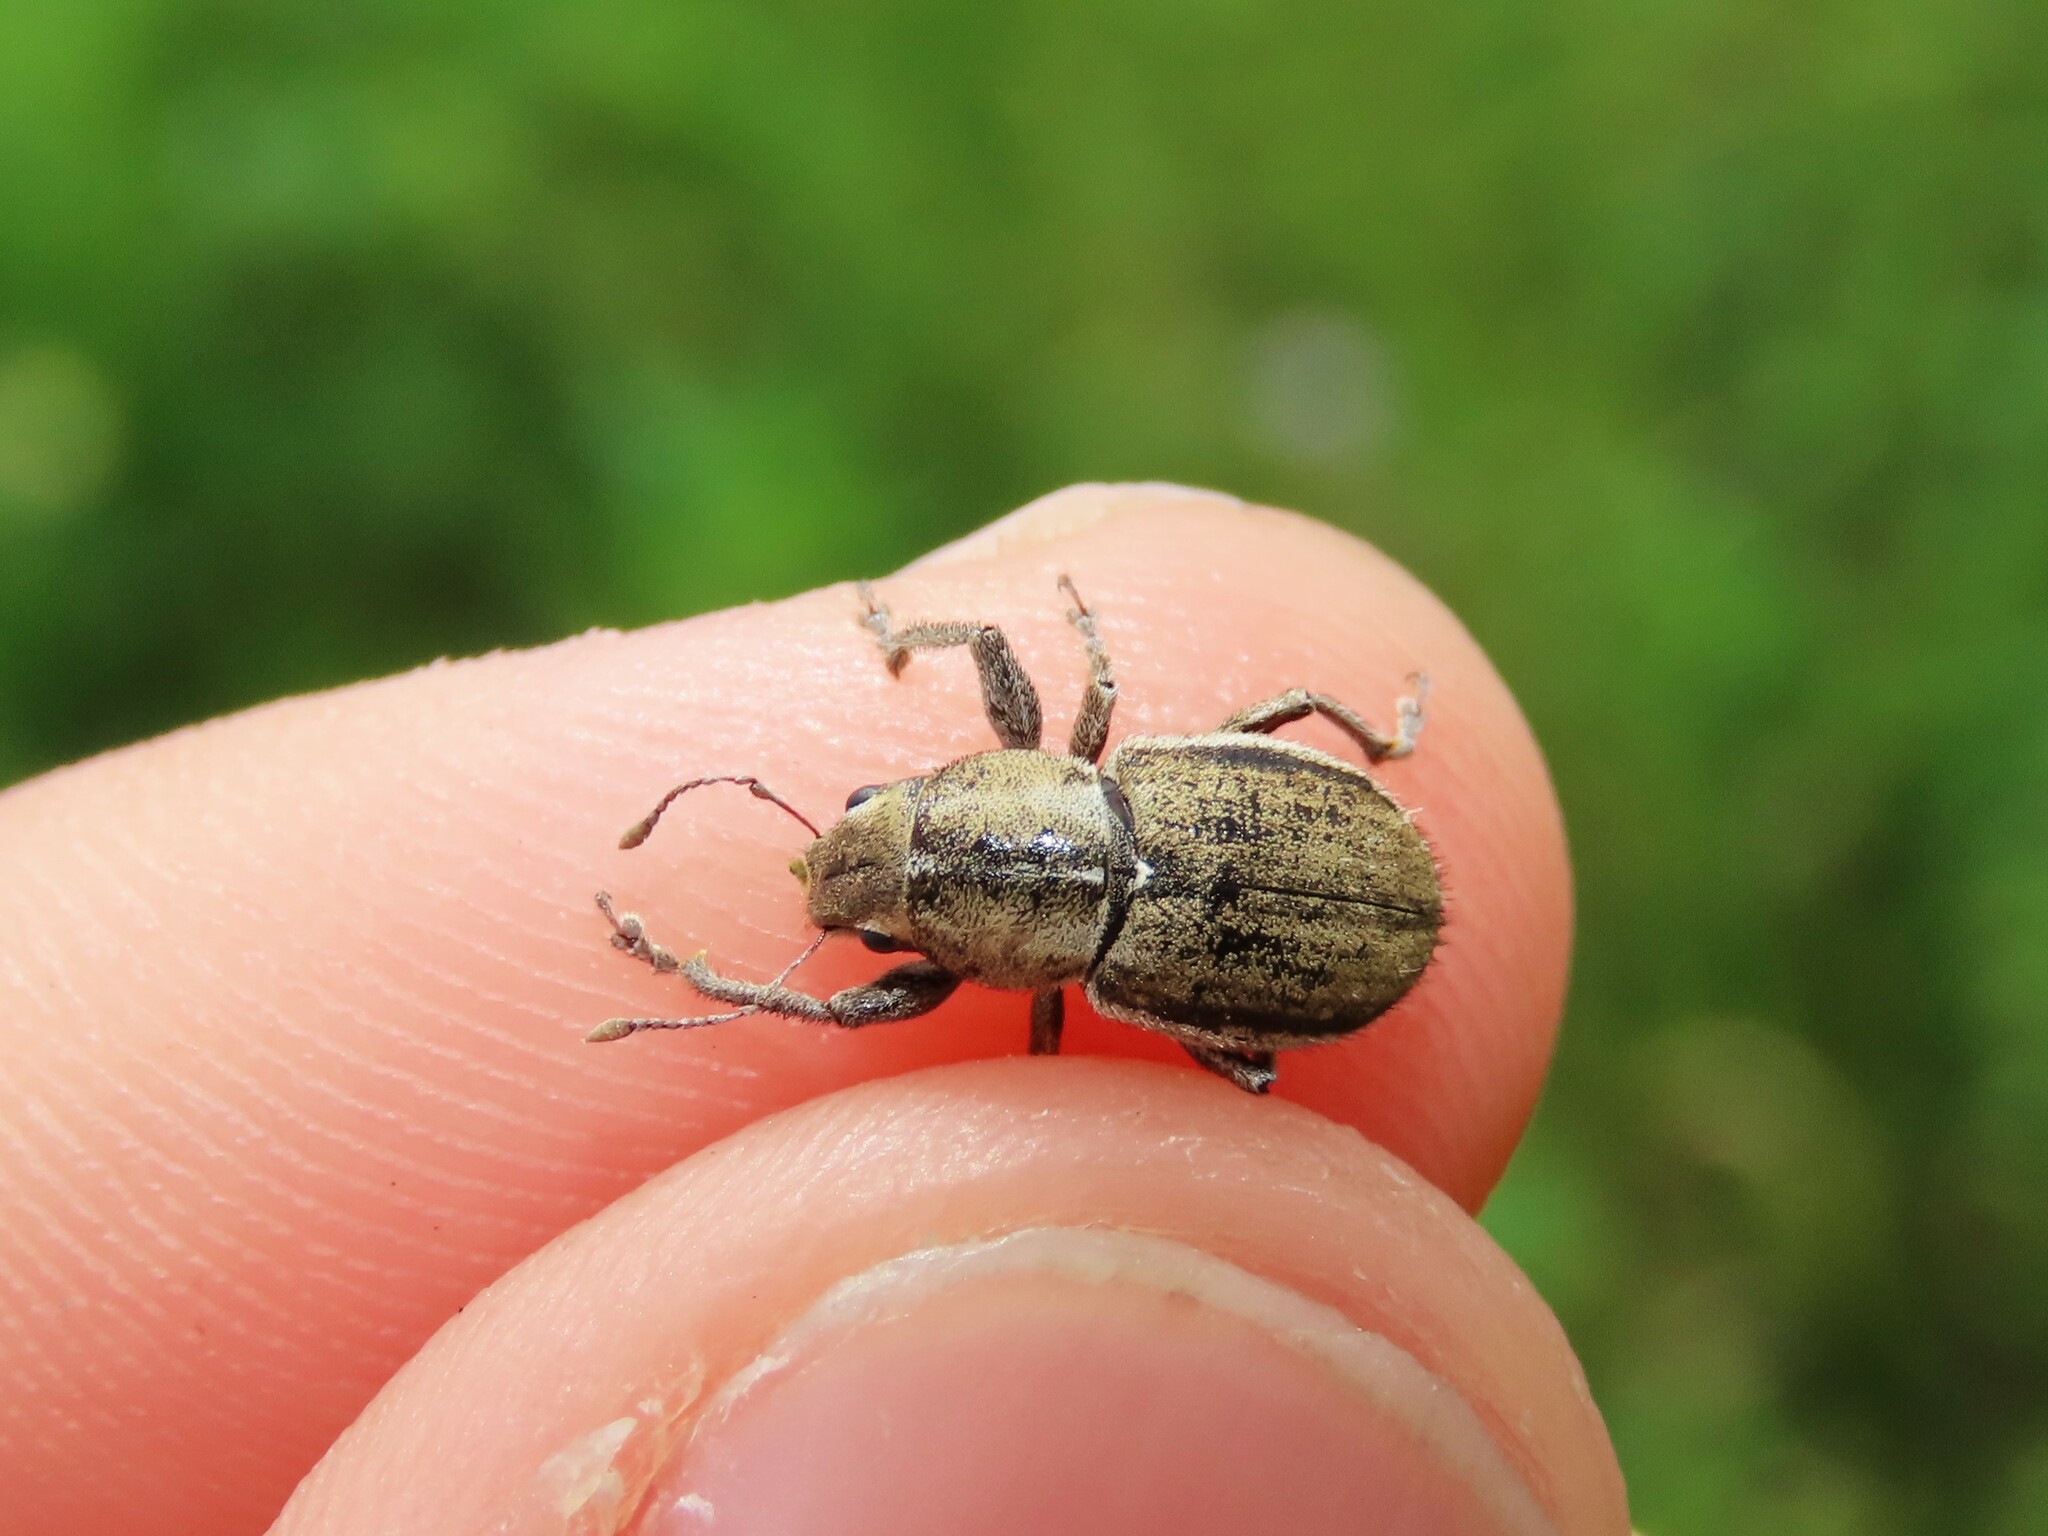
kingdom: Animalia
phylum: Arthropoda
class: Insecta
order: Coleoptera
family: Curculionidae
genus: Naupactus
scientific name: Naupactus peregrinus
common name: Whitefringed beetle
